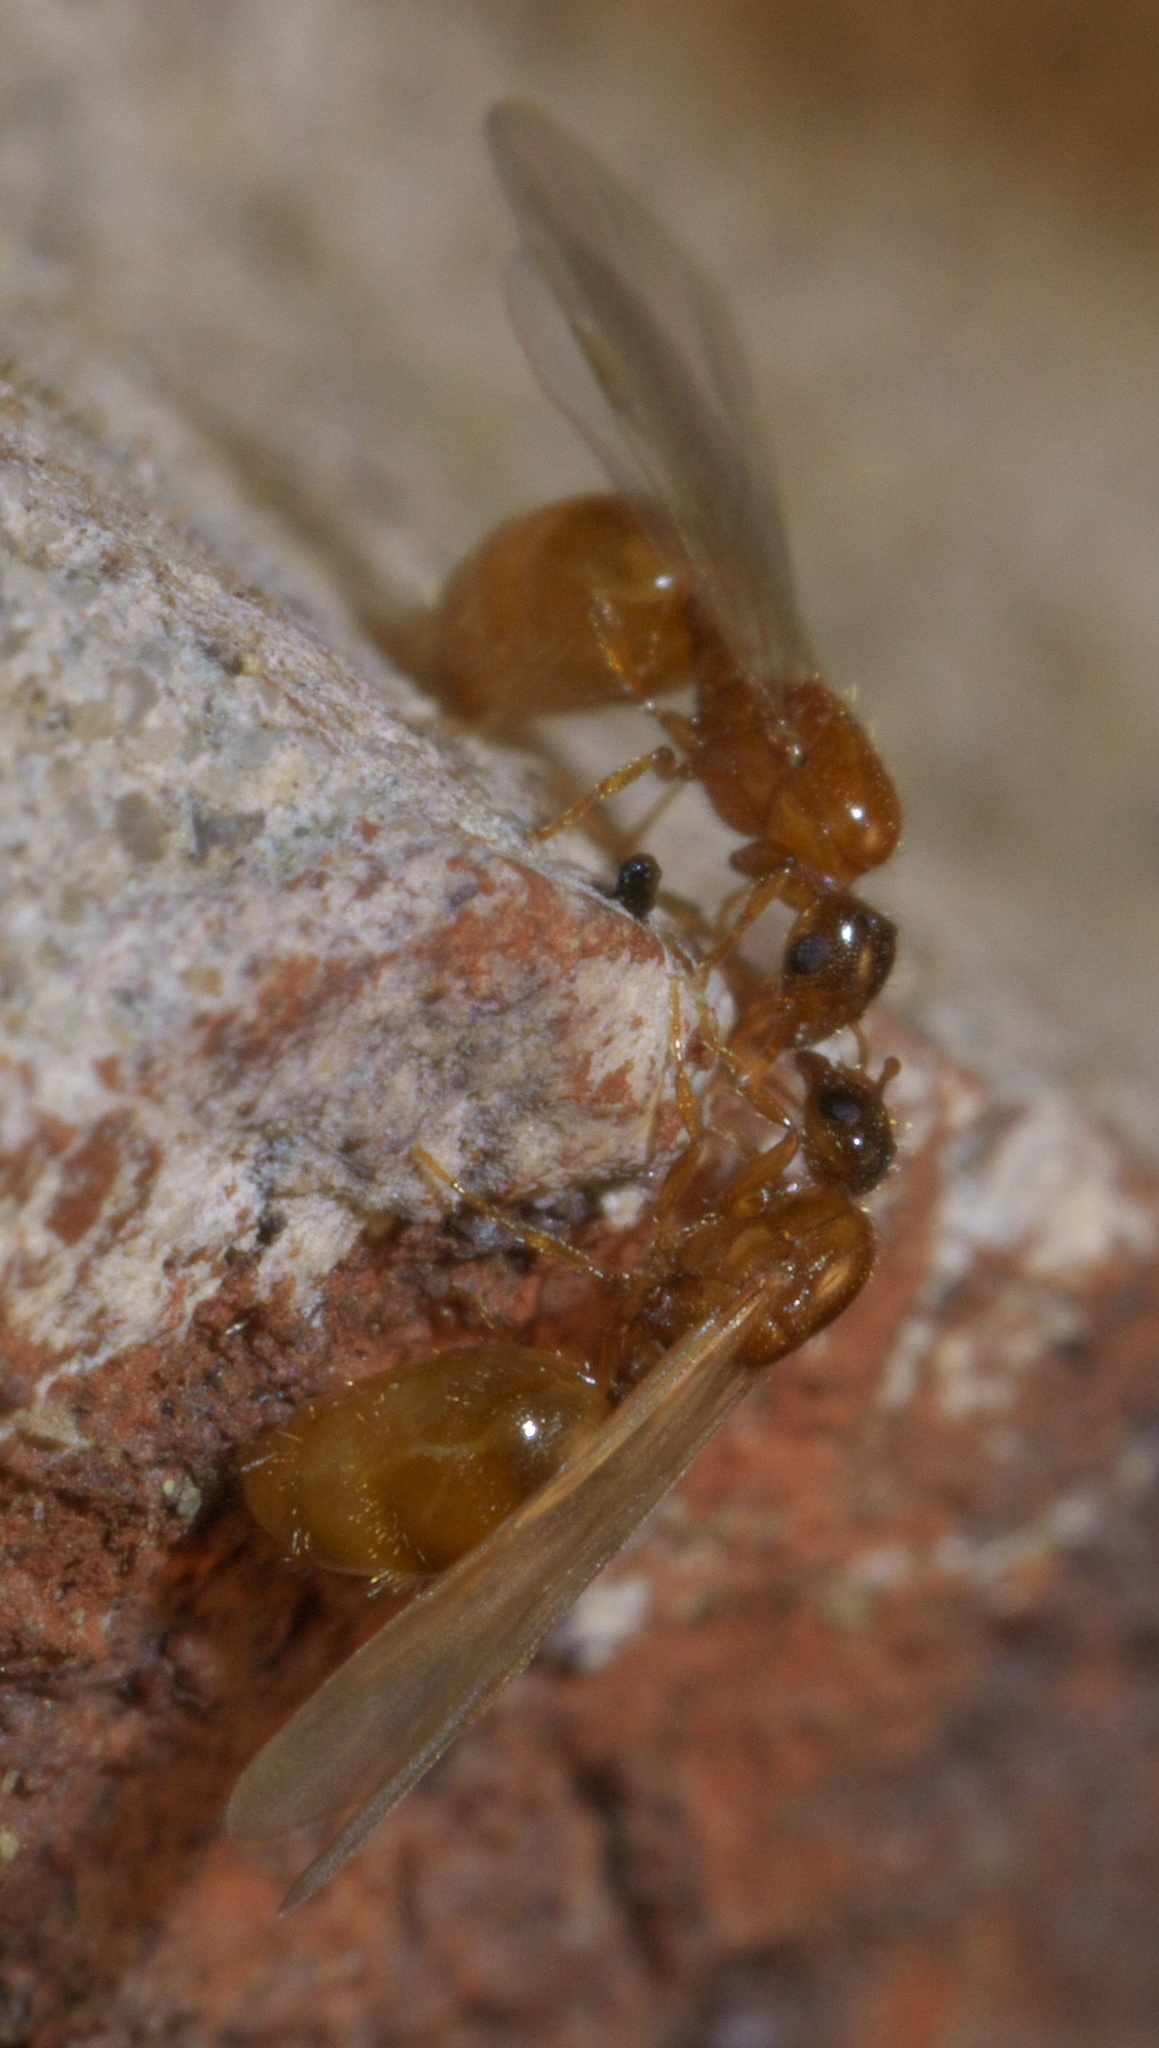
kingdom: Animalia
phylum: Arthropoda
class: Insecta
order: Hymenoptera
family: Formicidae
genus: Solenopsis
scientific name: Solenopsis molesta
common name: Thief ant
